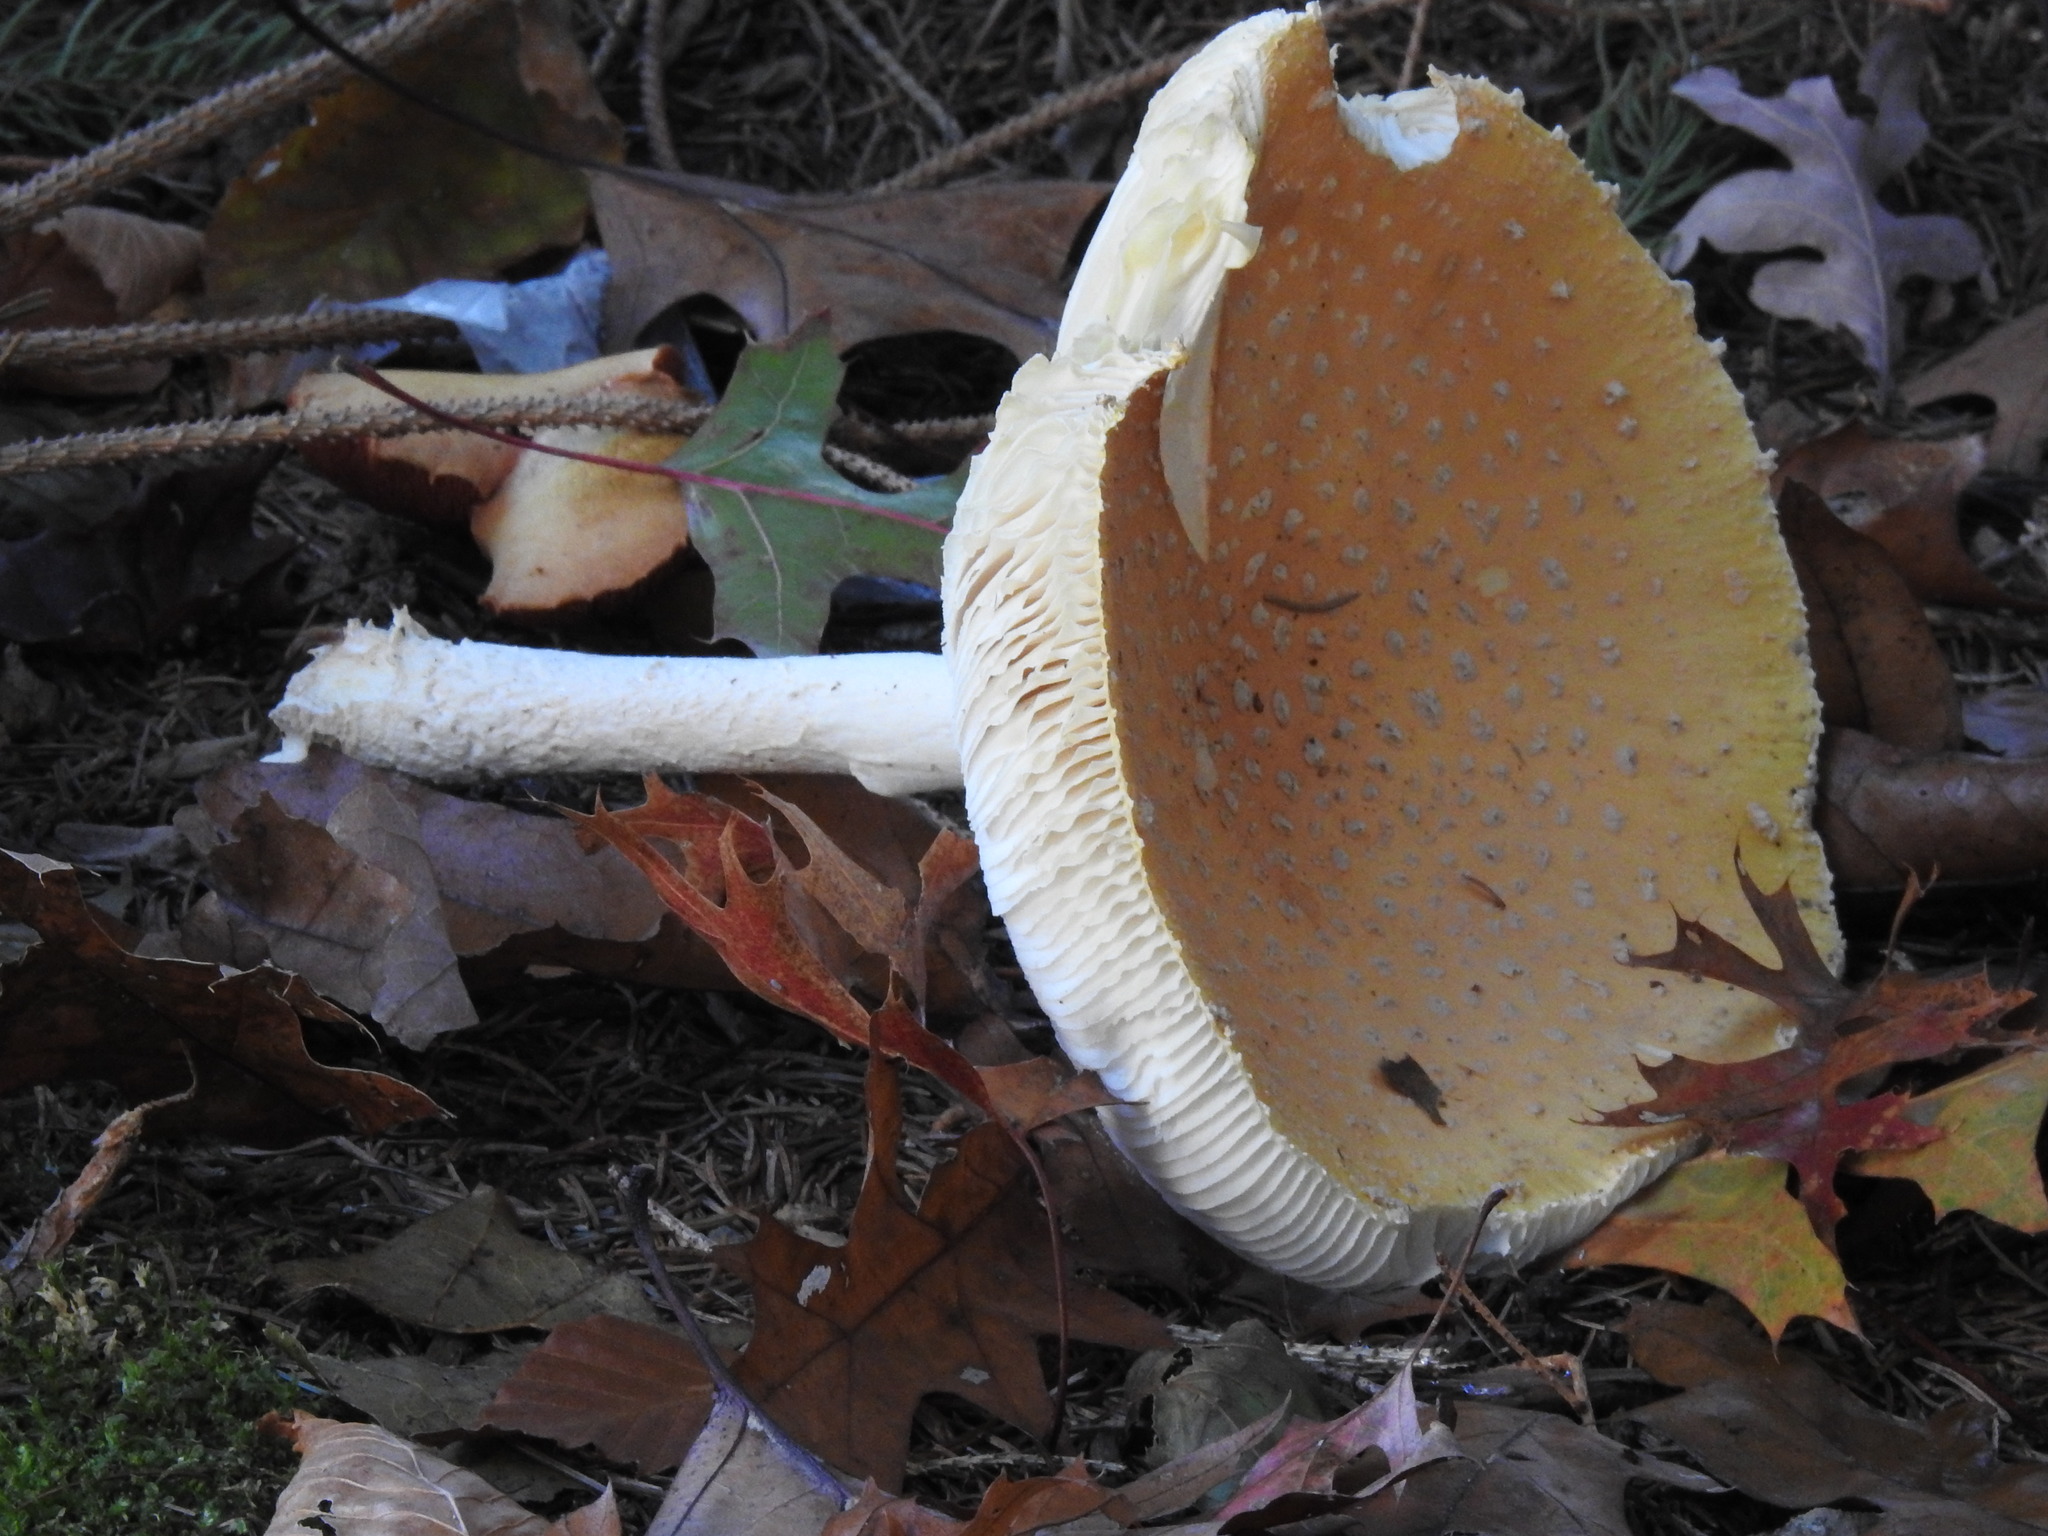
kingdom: Fungi
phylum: Basidiomycota
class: Agaricomycetes
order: Agaricales
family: Amanitaceae
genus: Amanita
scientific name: Amanita muscaria
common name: Fly agaric
